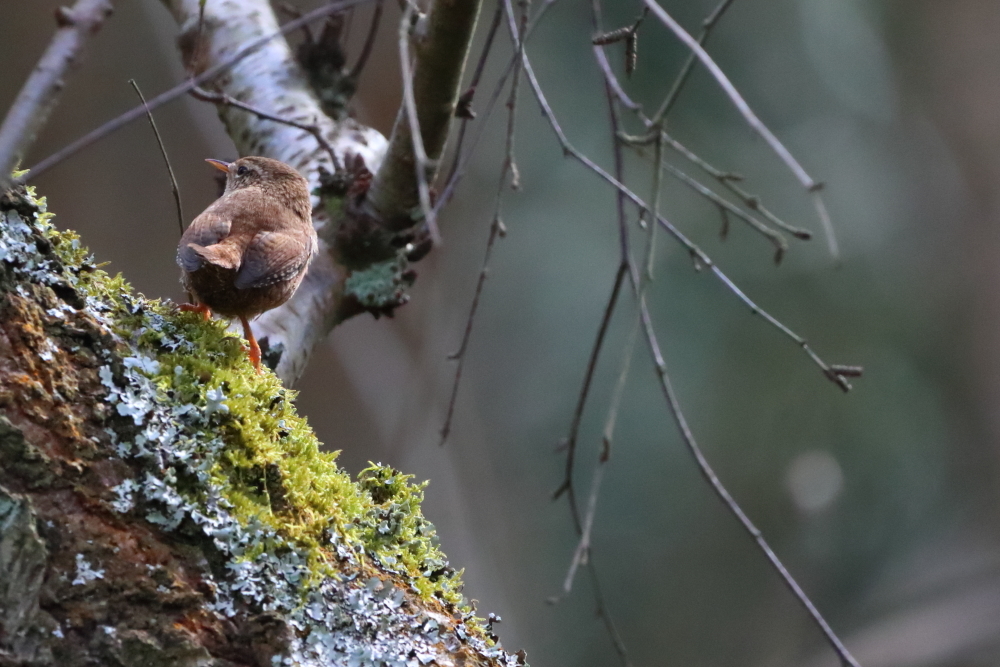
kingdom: Animalia
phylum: Chordata
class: Aves
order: Passeriformes
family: Troglodytidae
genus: Troglodytes
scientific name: Troglodytes troglodytes
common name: Eurasian wren
